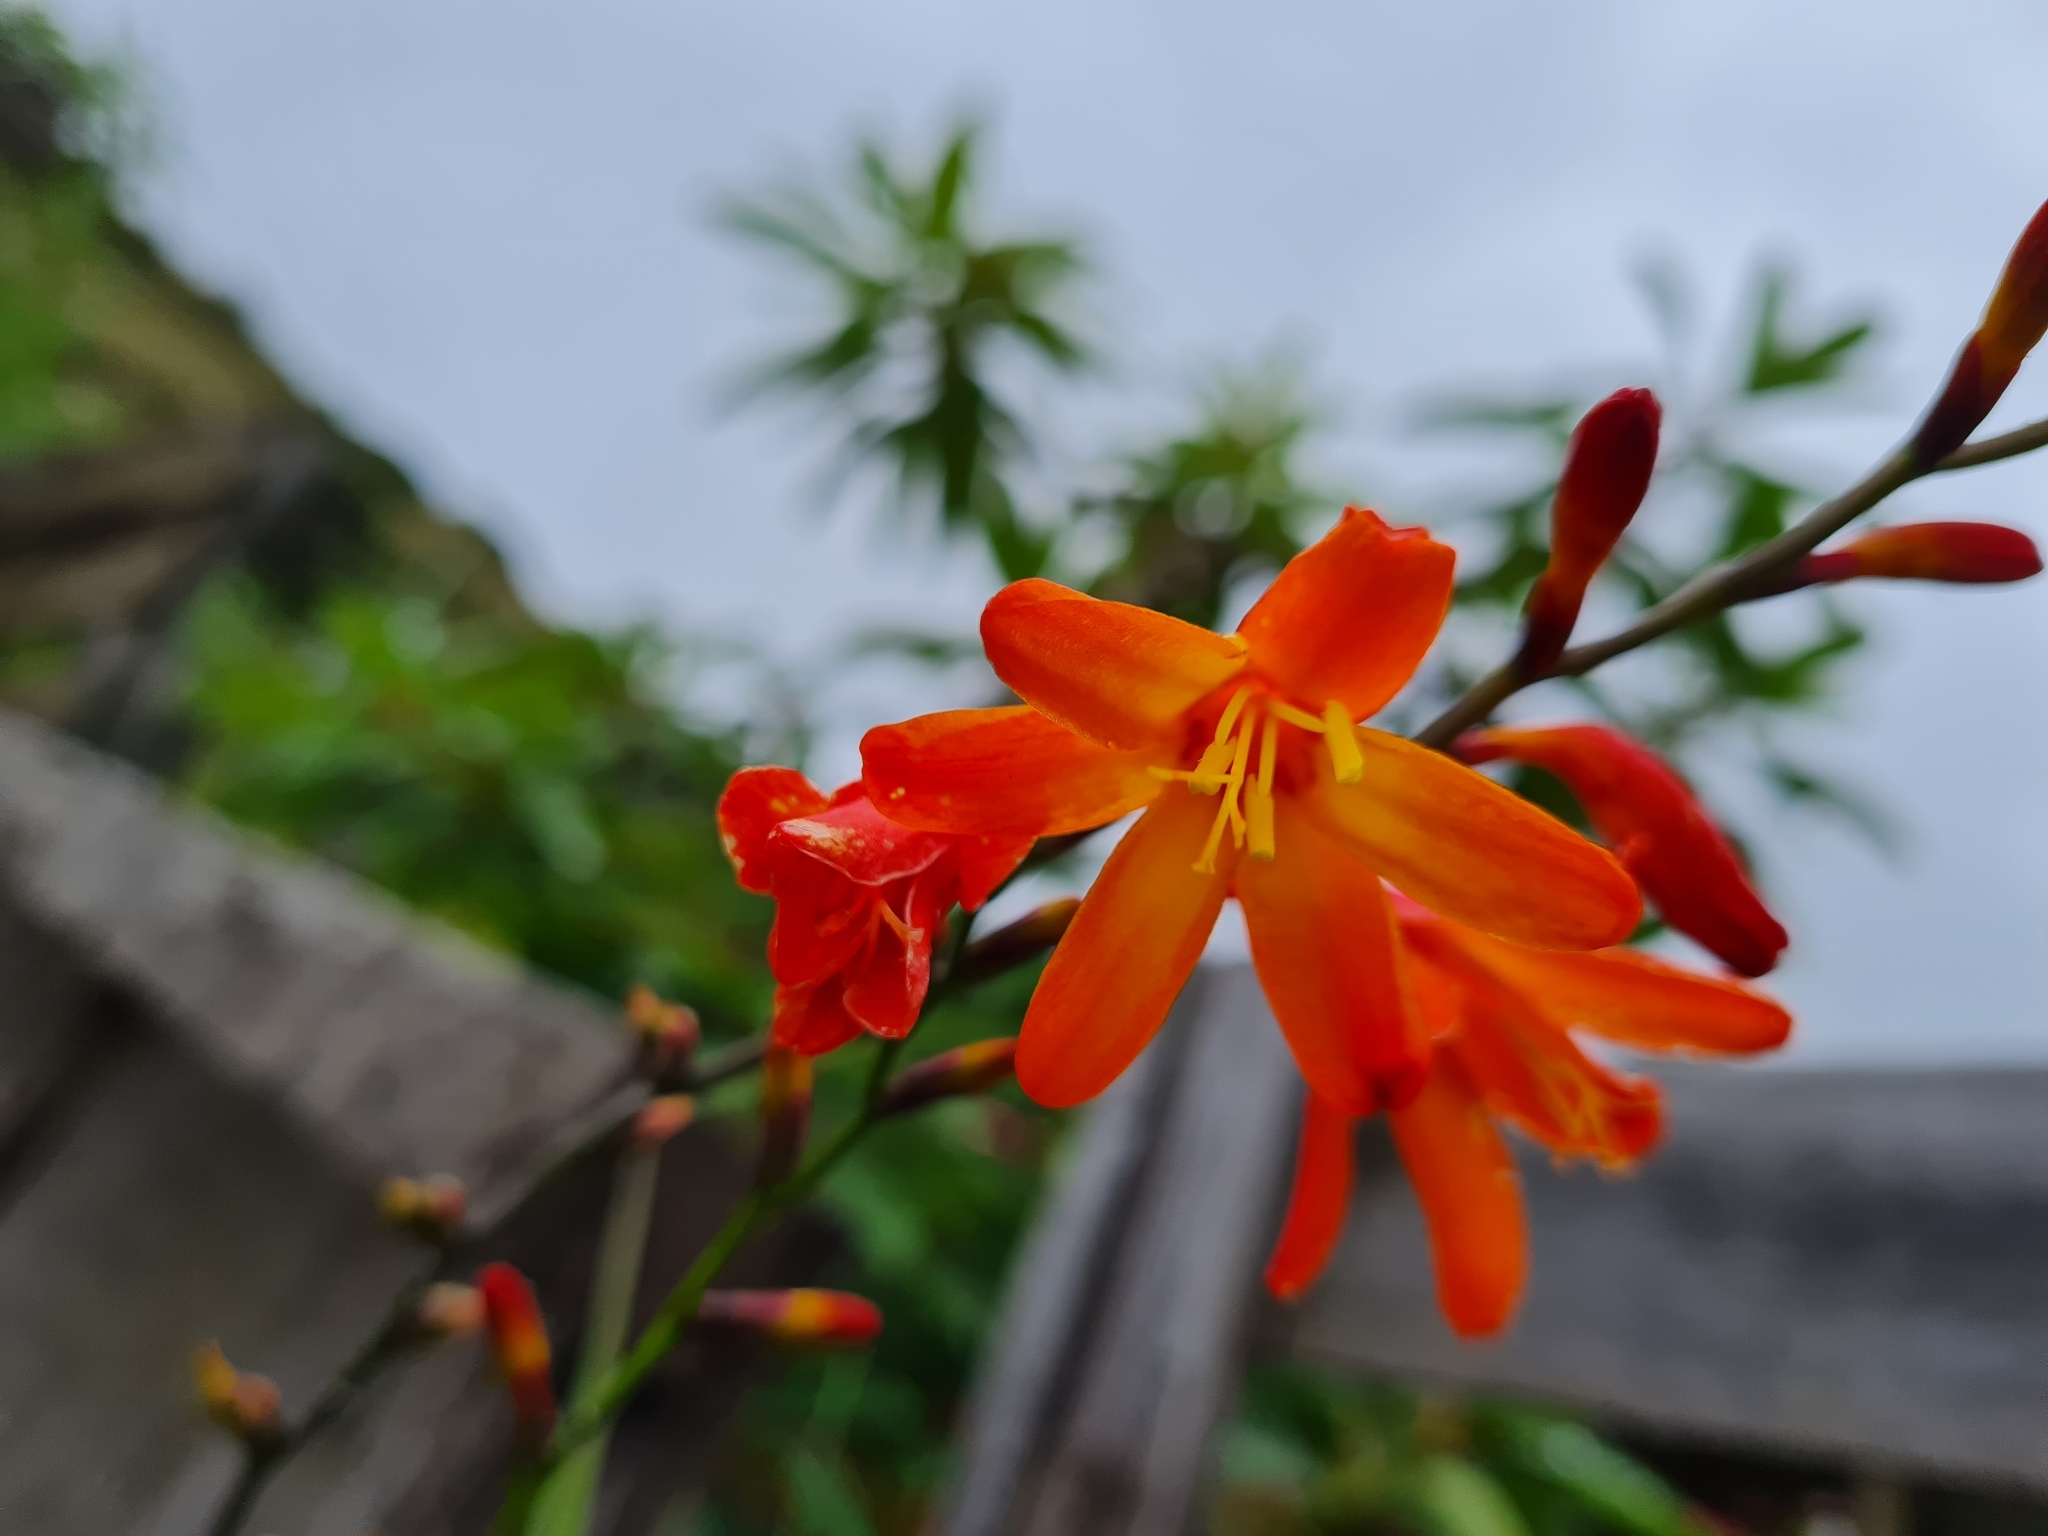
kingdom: Plantae
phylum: Tracheophyta
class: Liliopsida
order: Asparagales
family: Iridaceae
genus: Crocosmia
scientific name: Crocosmia crocosmiiflora
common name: Montbretia
